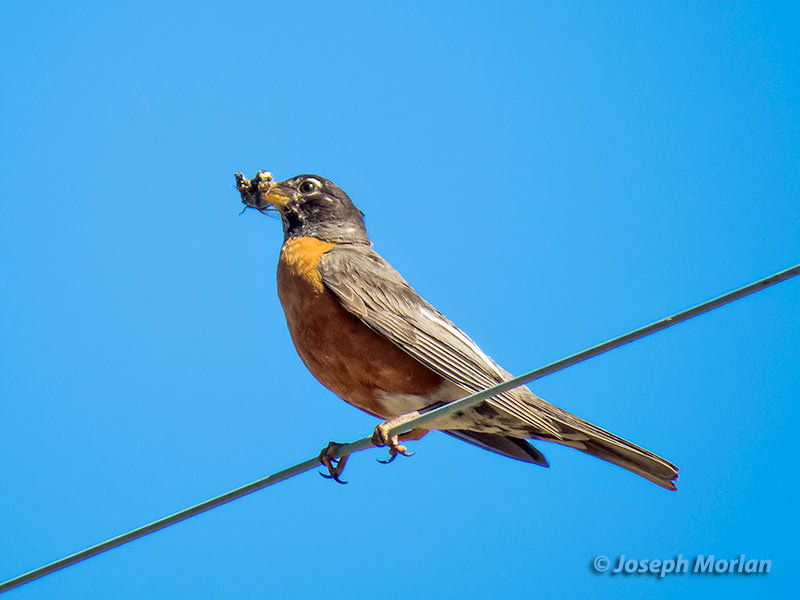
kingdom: Animalia
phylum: Chordata
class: Aves
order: Passeriformes
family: Turdidae
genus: Turdus
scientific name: Turdus migratorius
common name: American robin
